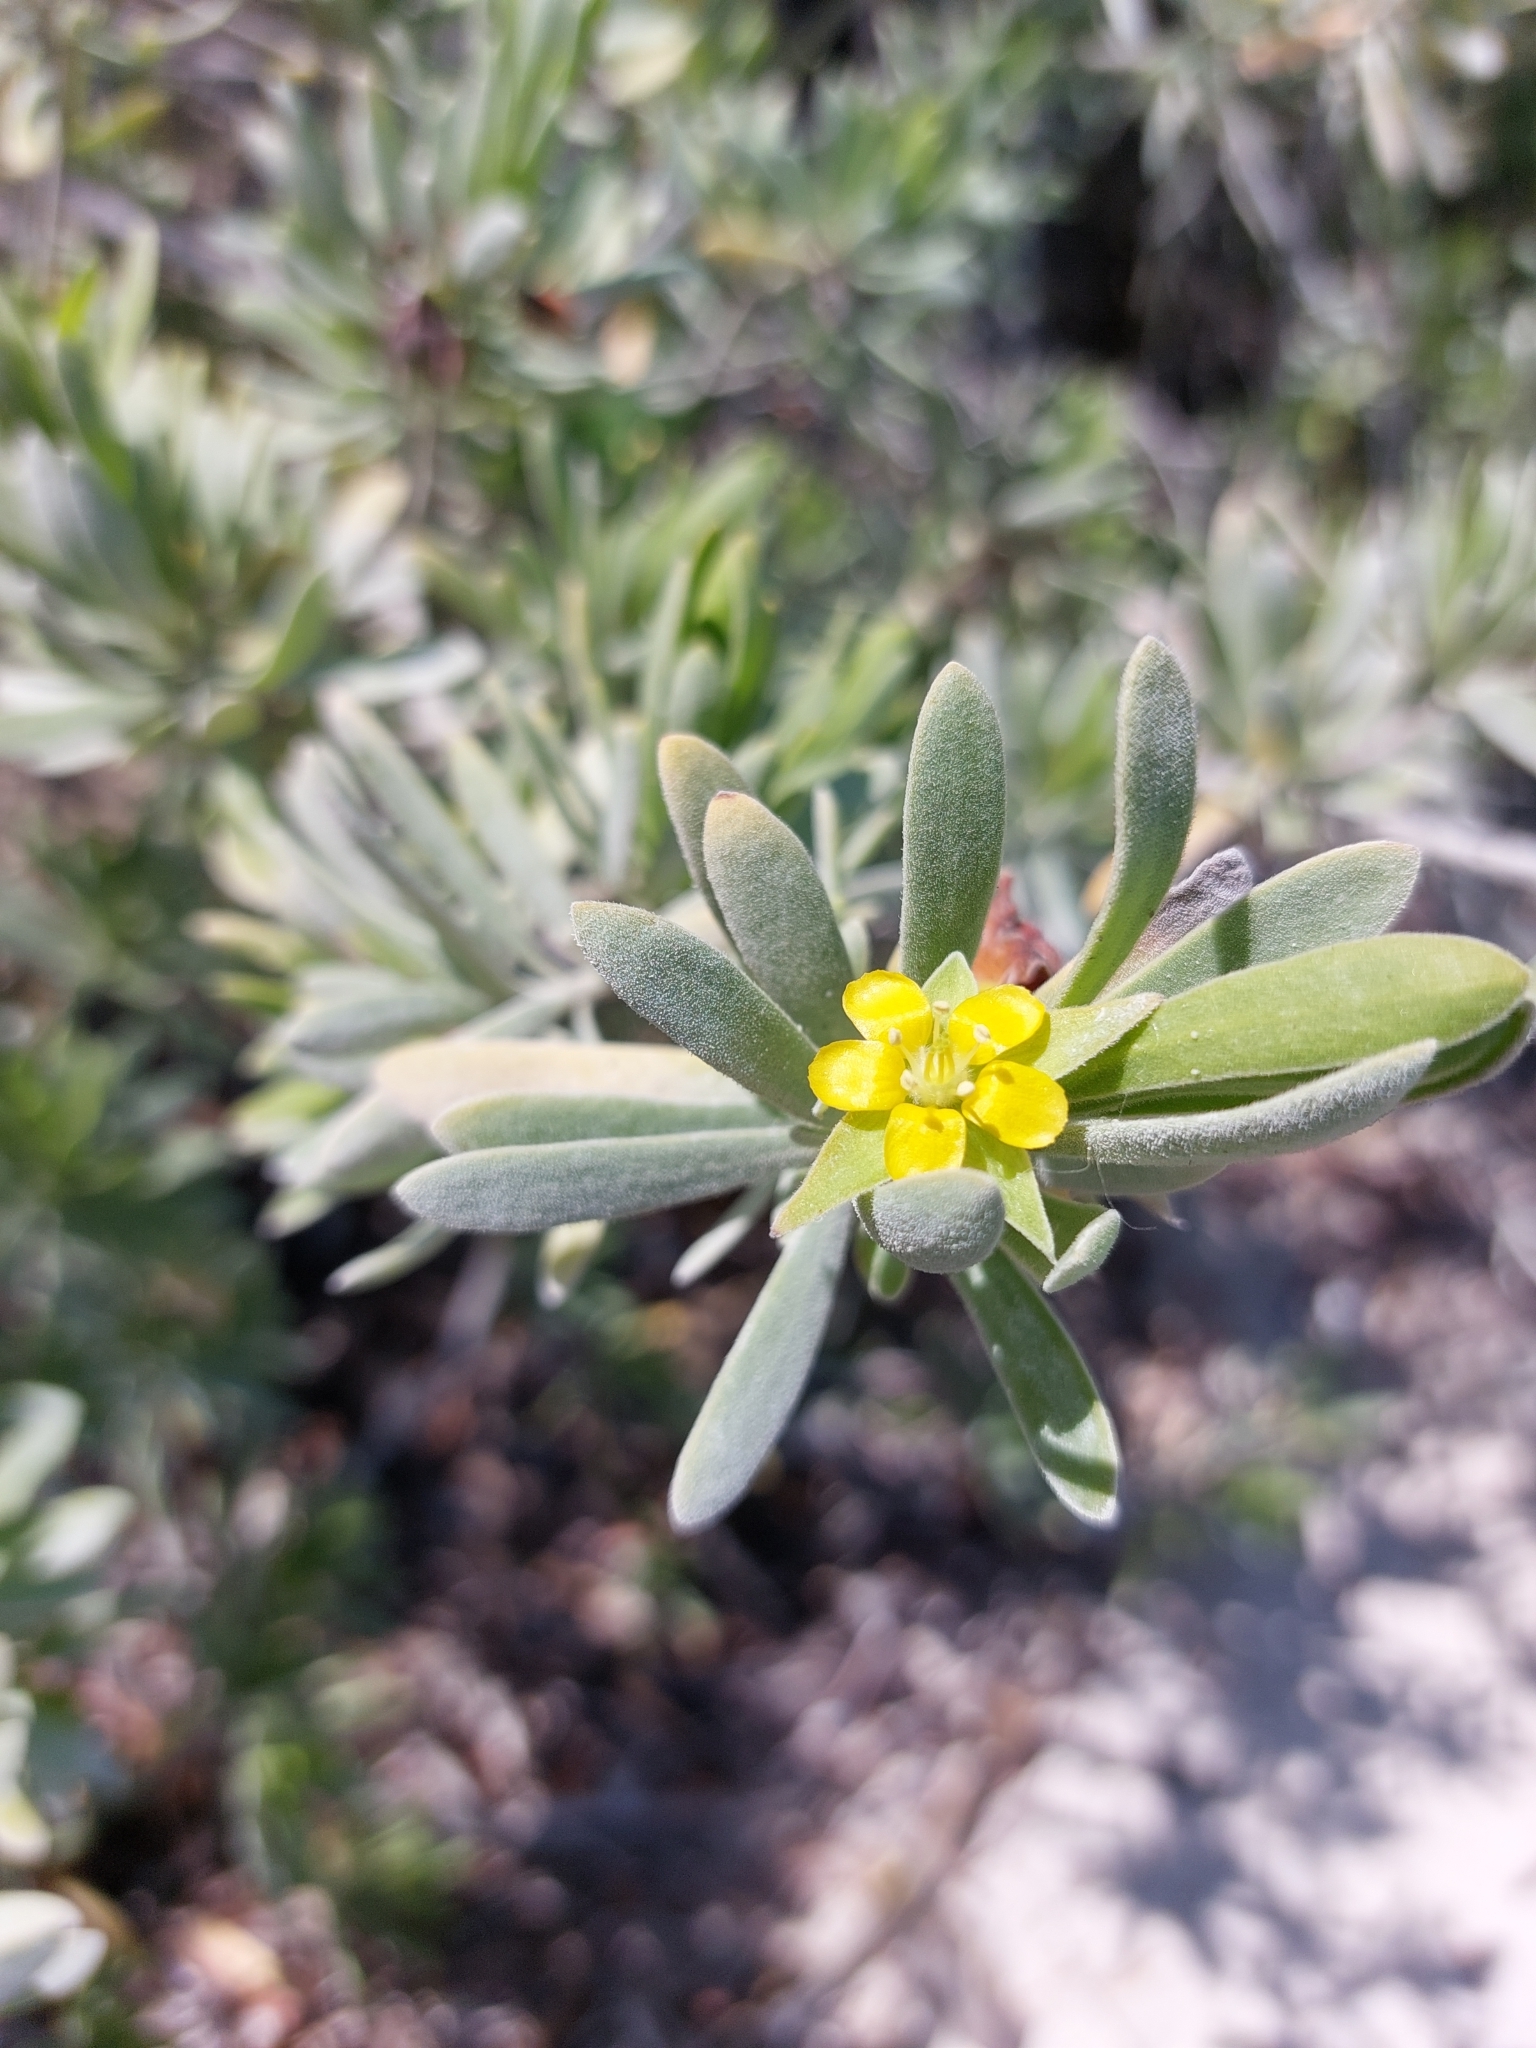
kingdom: Plantae
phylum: Tracheophyta
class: Magnoliopsida
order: Fabales
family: Surianaceae
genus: Suriana
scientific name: Suriana maritima
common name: Bay-cedar
